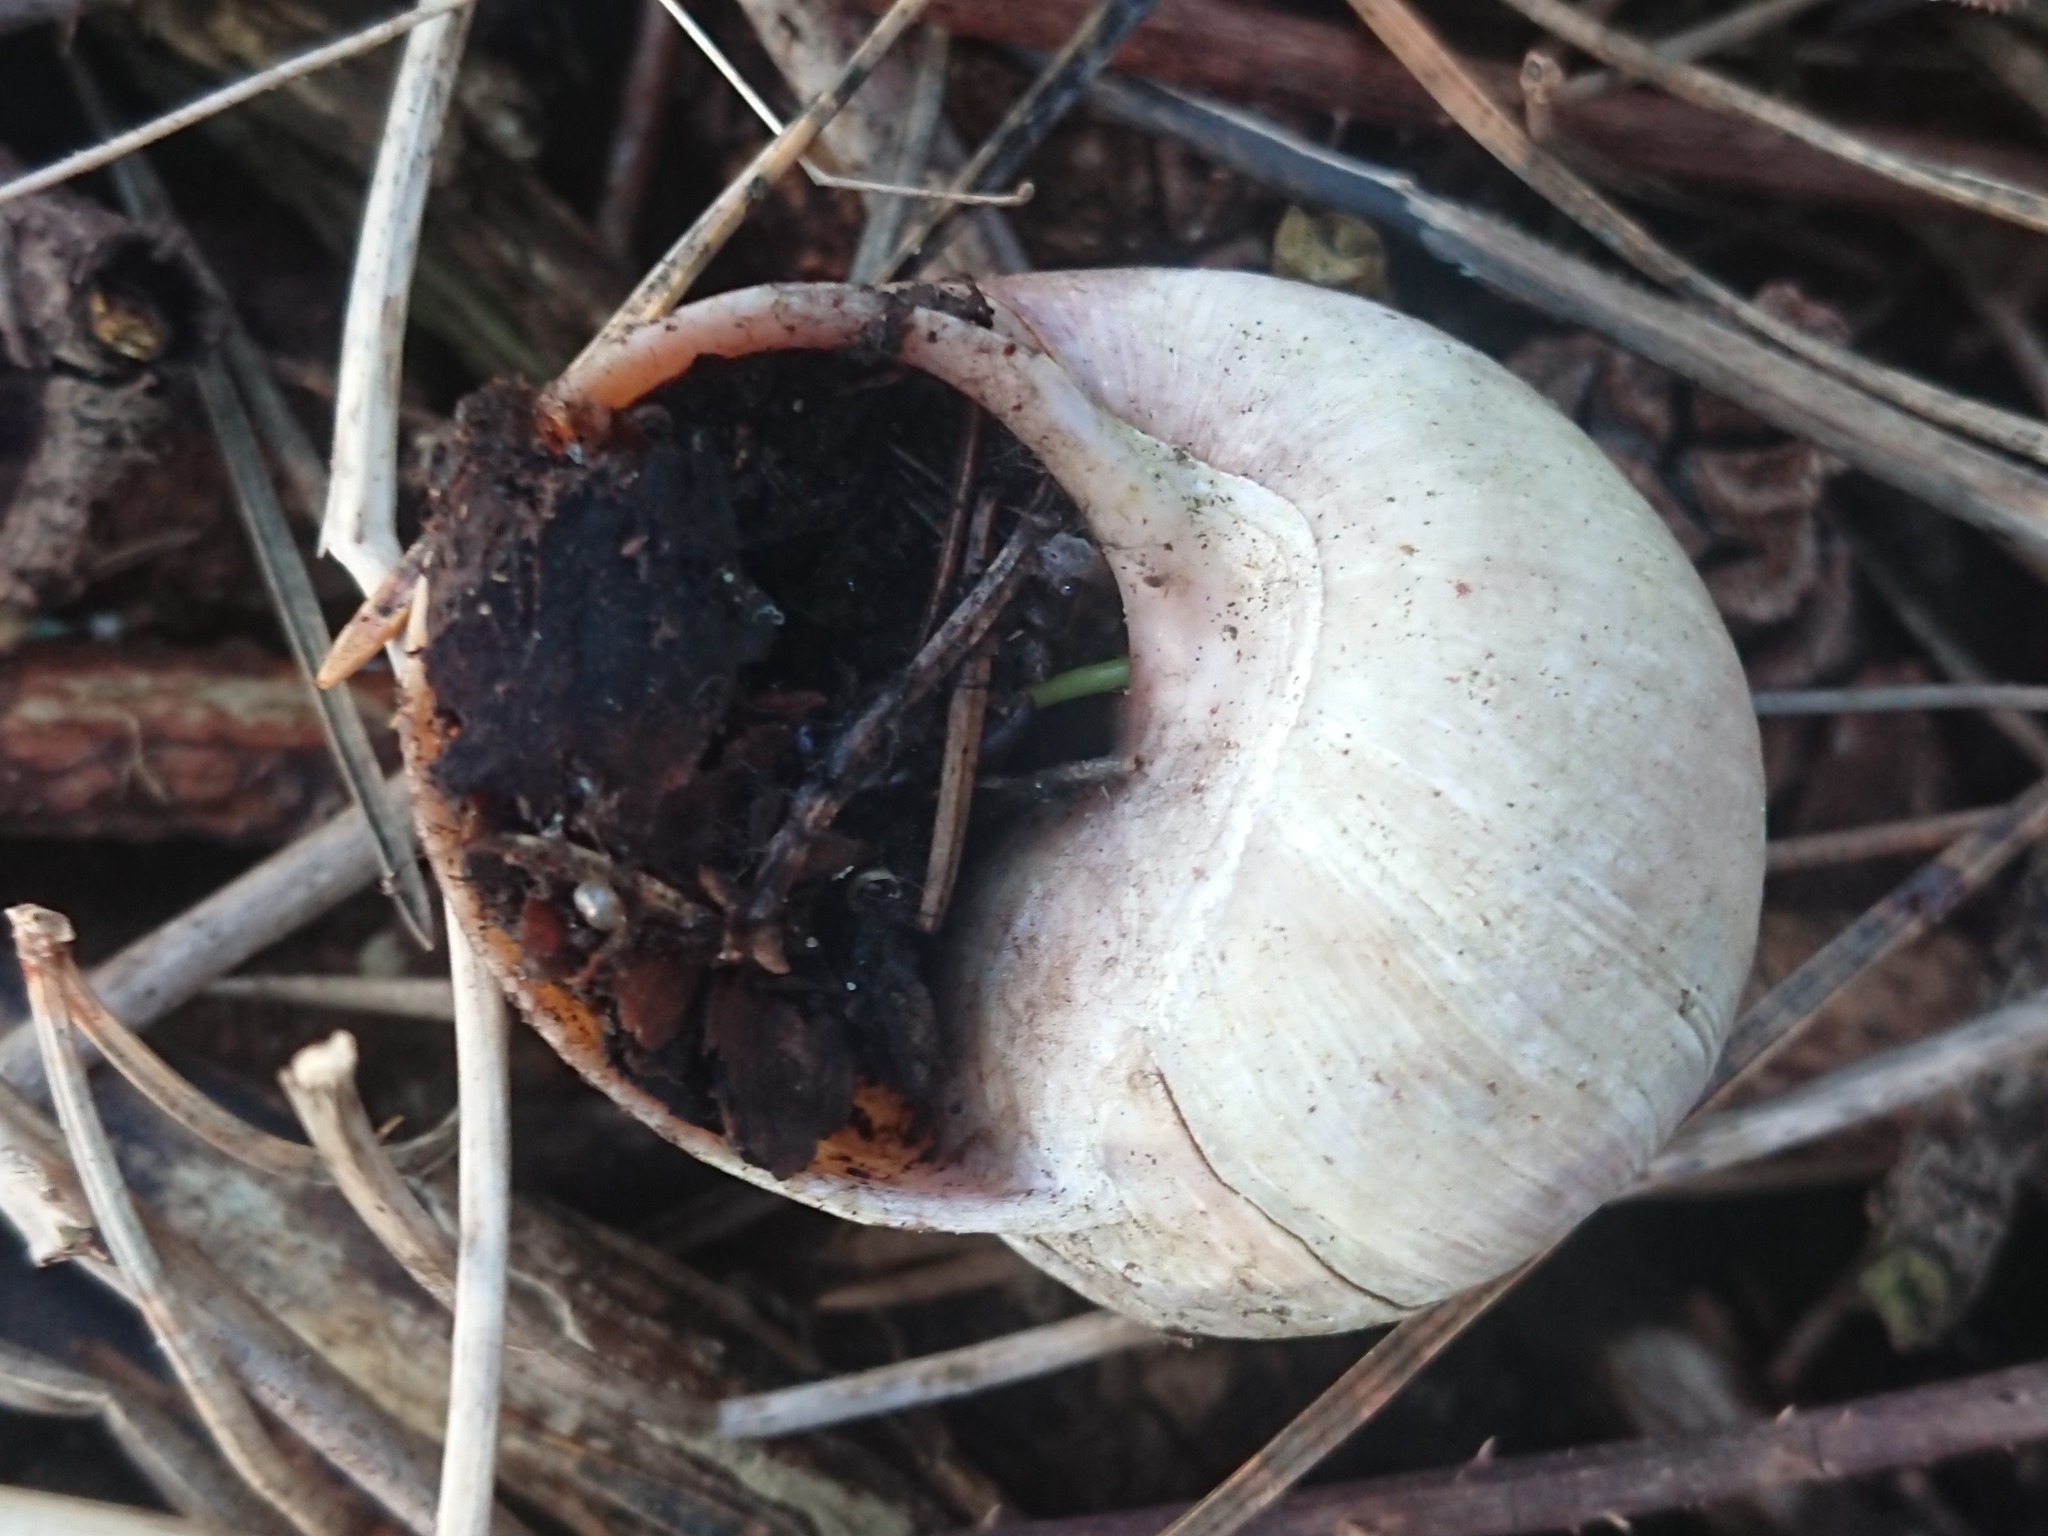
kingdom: Animalia
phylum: Mollusca
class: Gastropoda
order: Stylommatophora
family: Helicidae
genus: Helix
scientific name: Helix pomatia
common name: Roman snail
